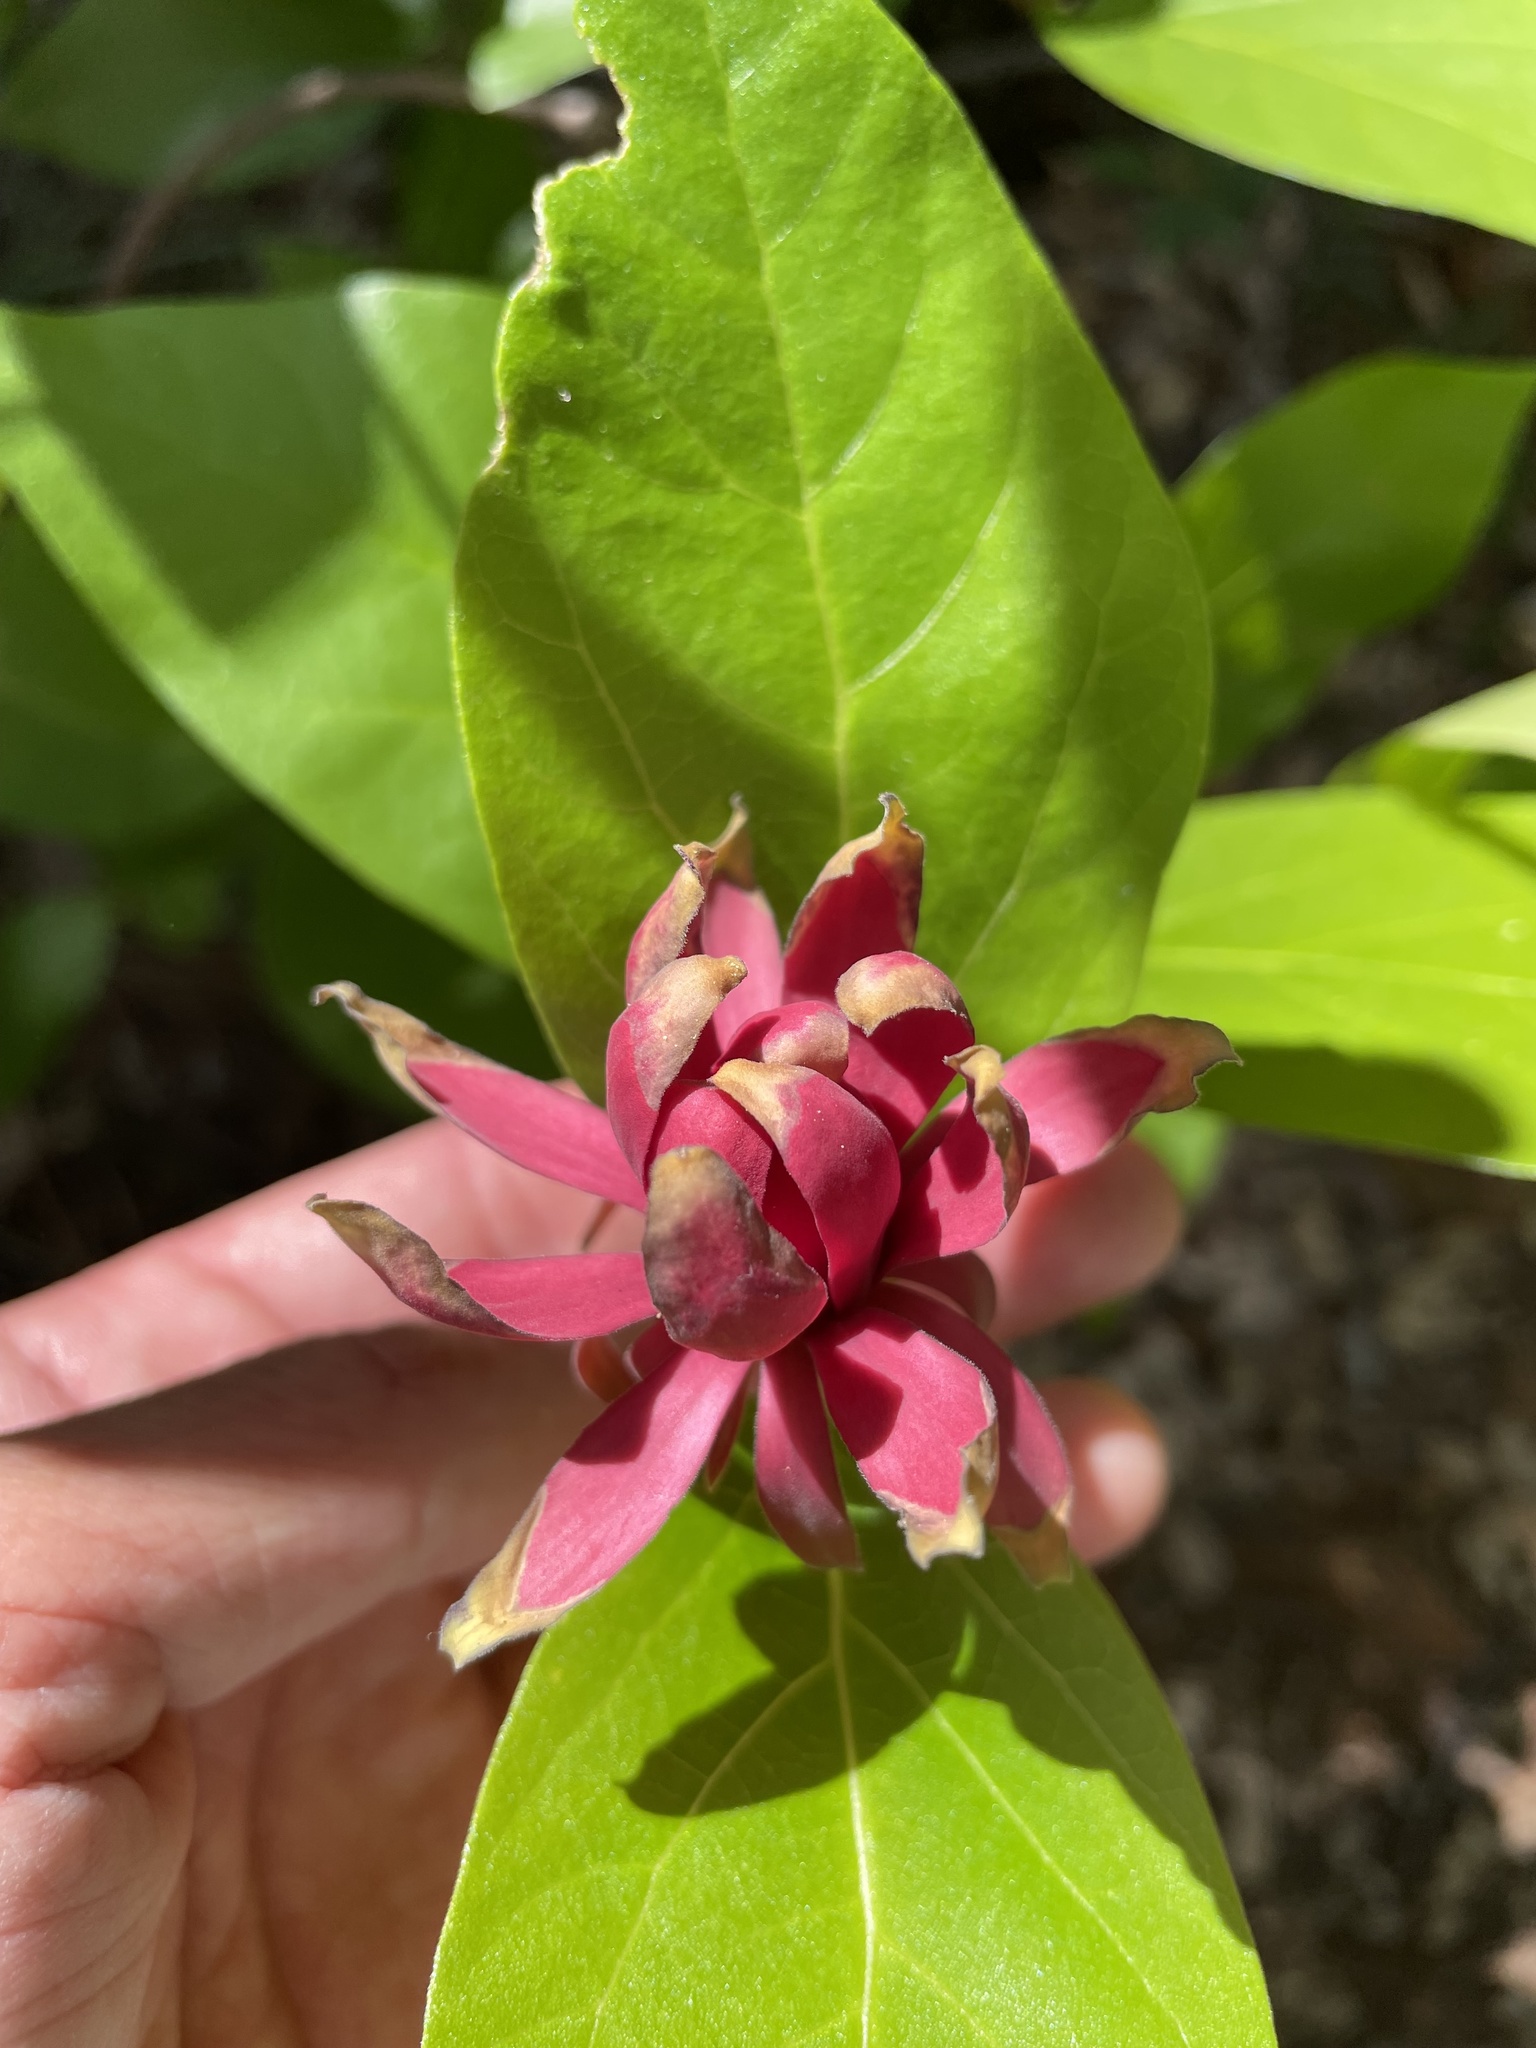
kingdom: Plantae
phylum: Tracheophyta
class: Magnoliopsida
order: Laurales
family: Calycanthaceae
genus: Calycanthus
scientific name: Calycanthus occidentalis
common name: California spicebush
